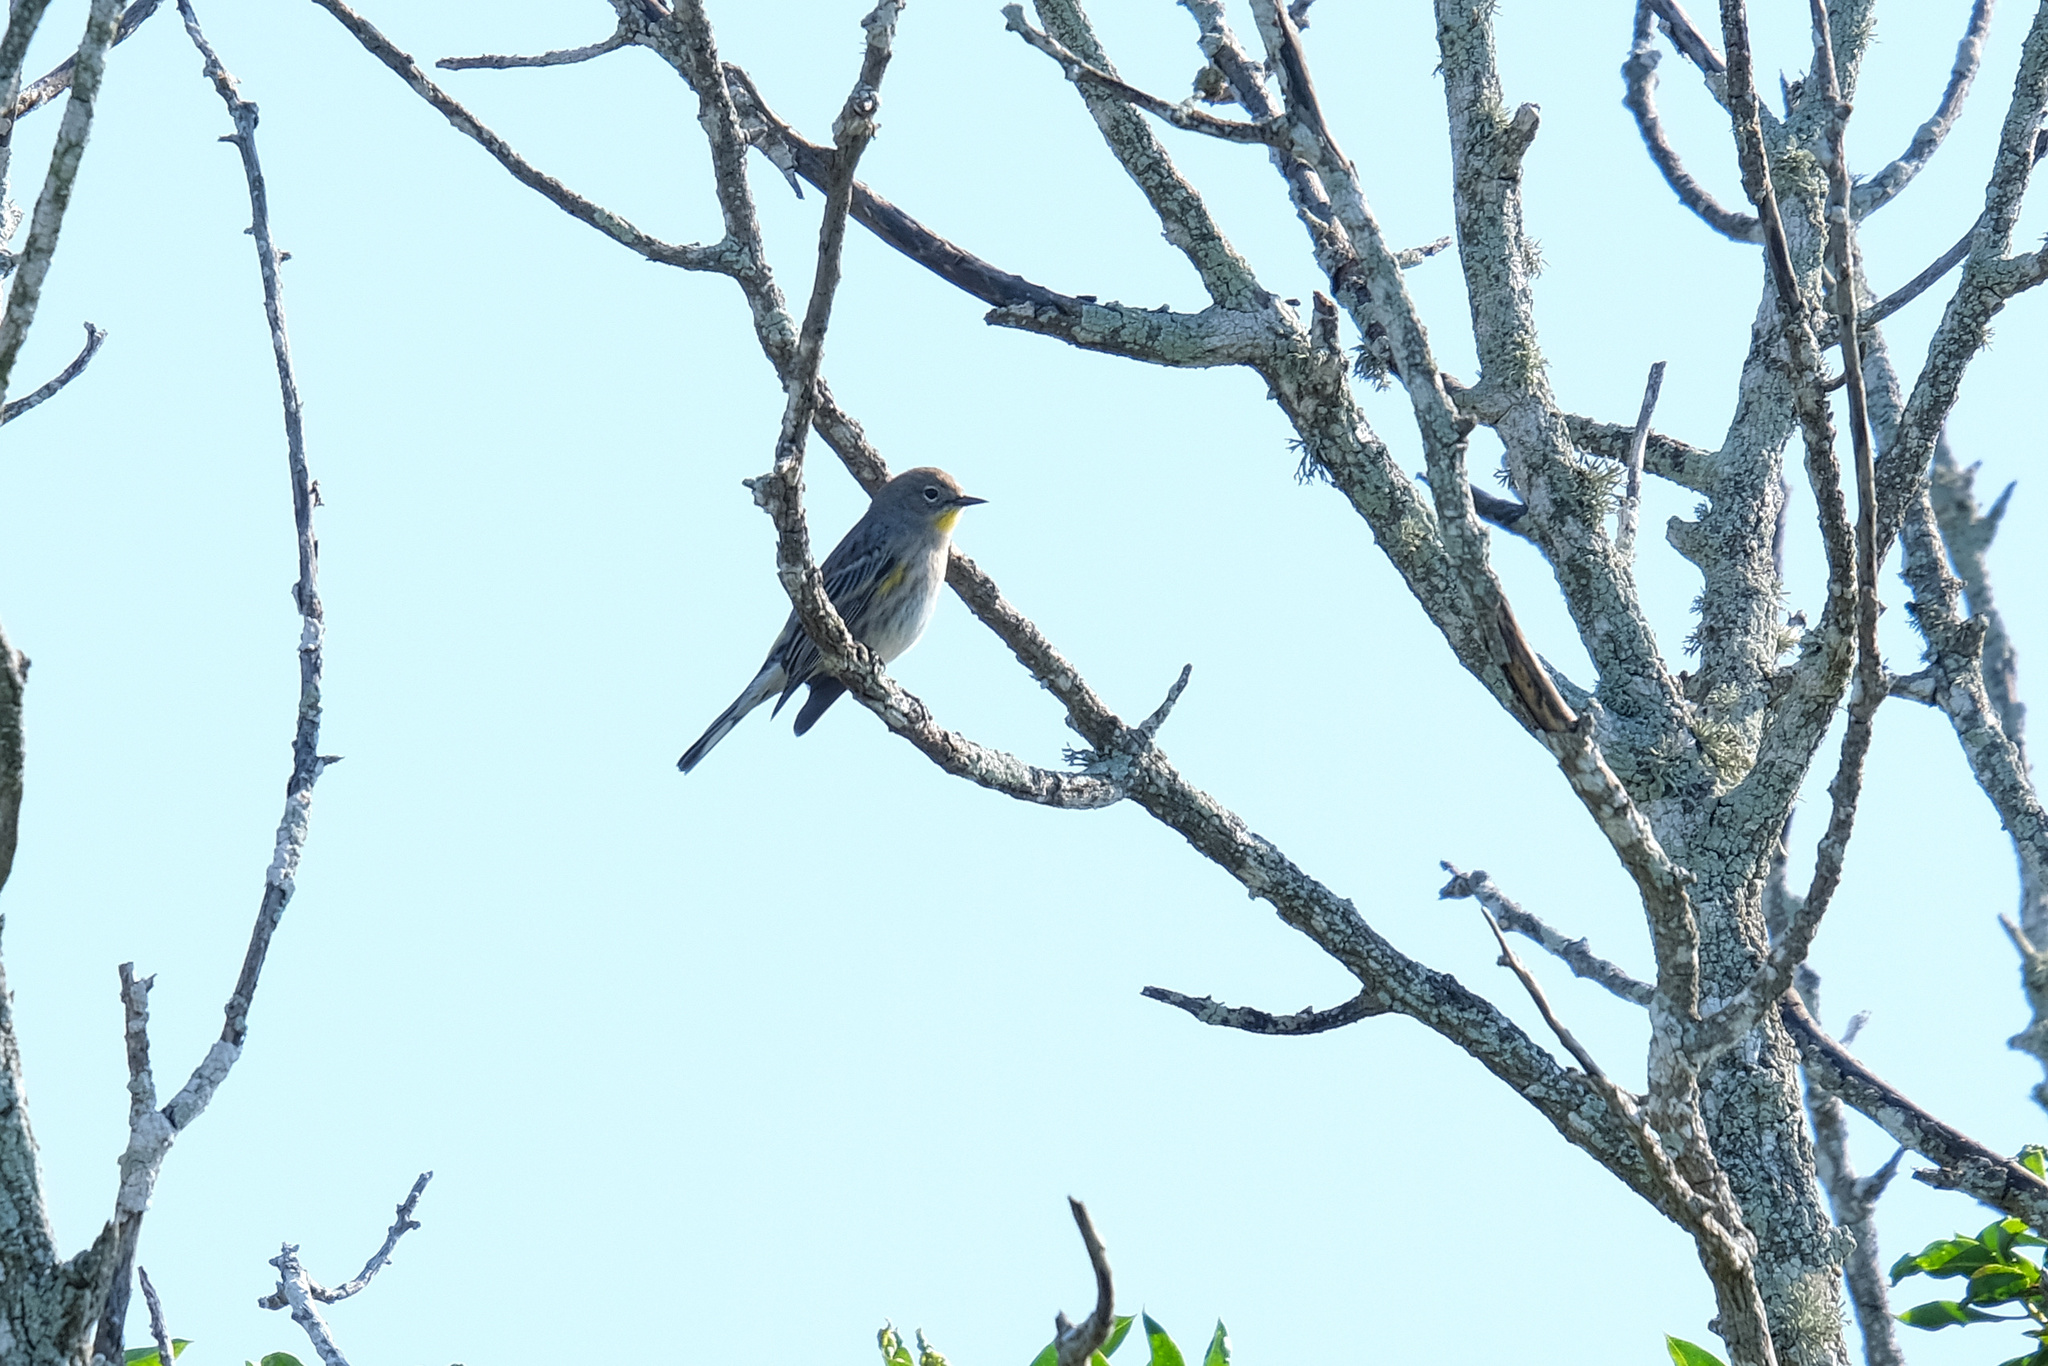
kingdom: Animalia
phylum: Chordata
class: Aves
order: Passeriformes
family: Parulidae
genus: Setophaga
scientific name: Setophaga coronata
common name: Myrtle warbler
